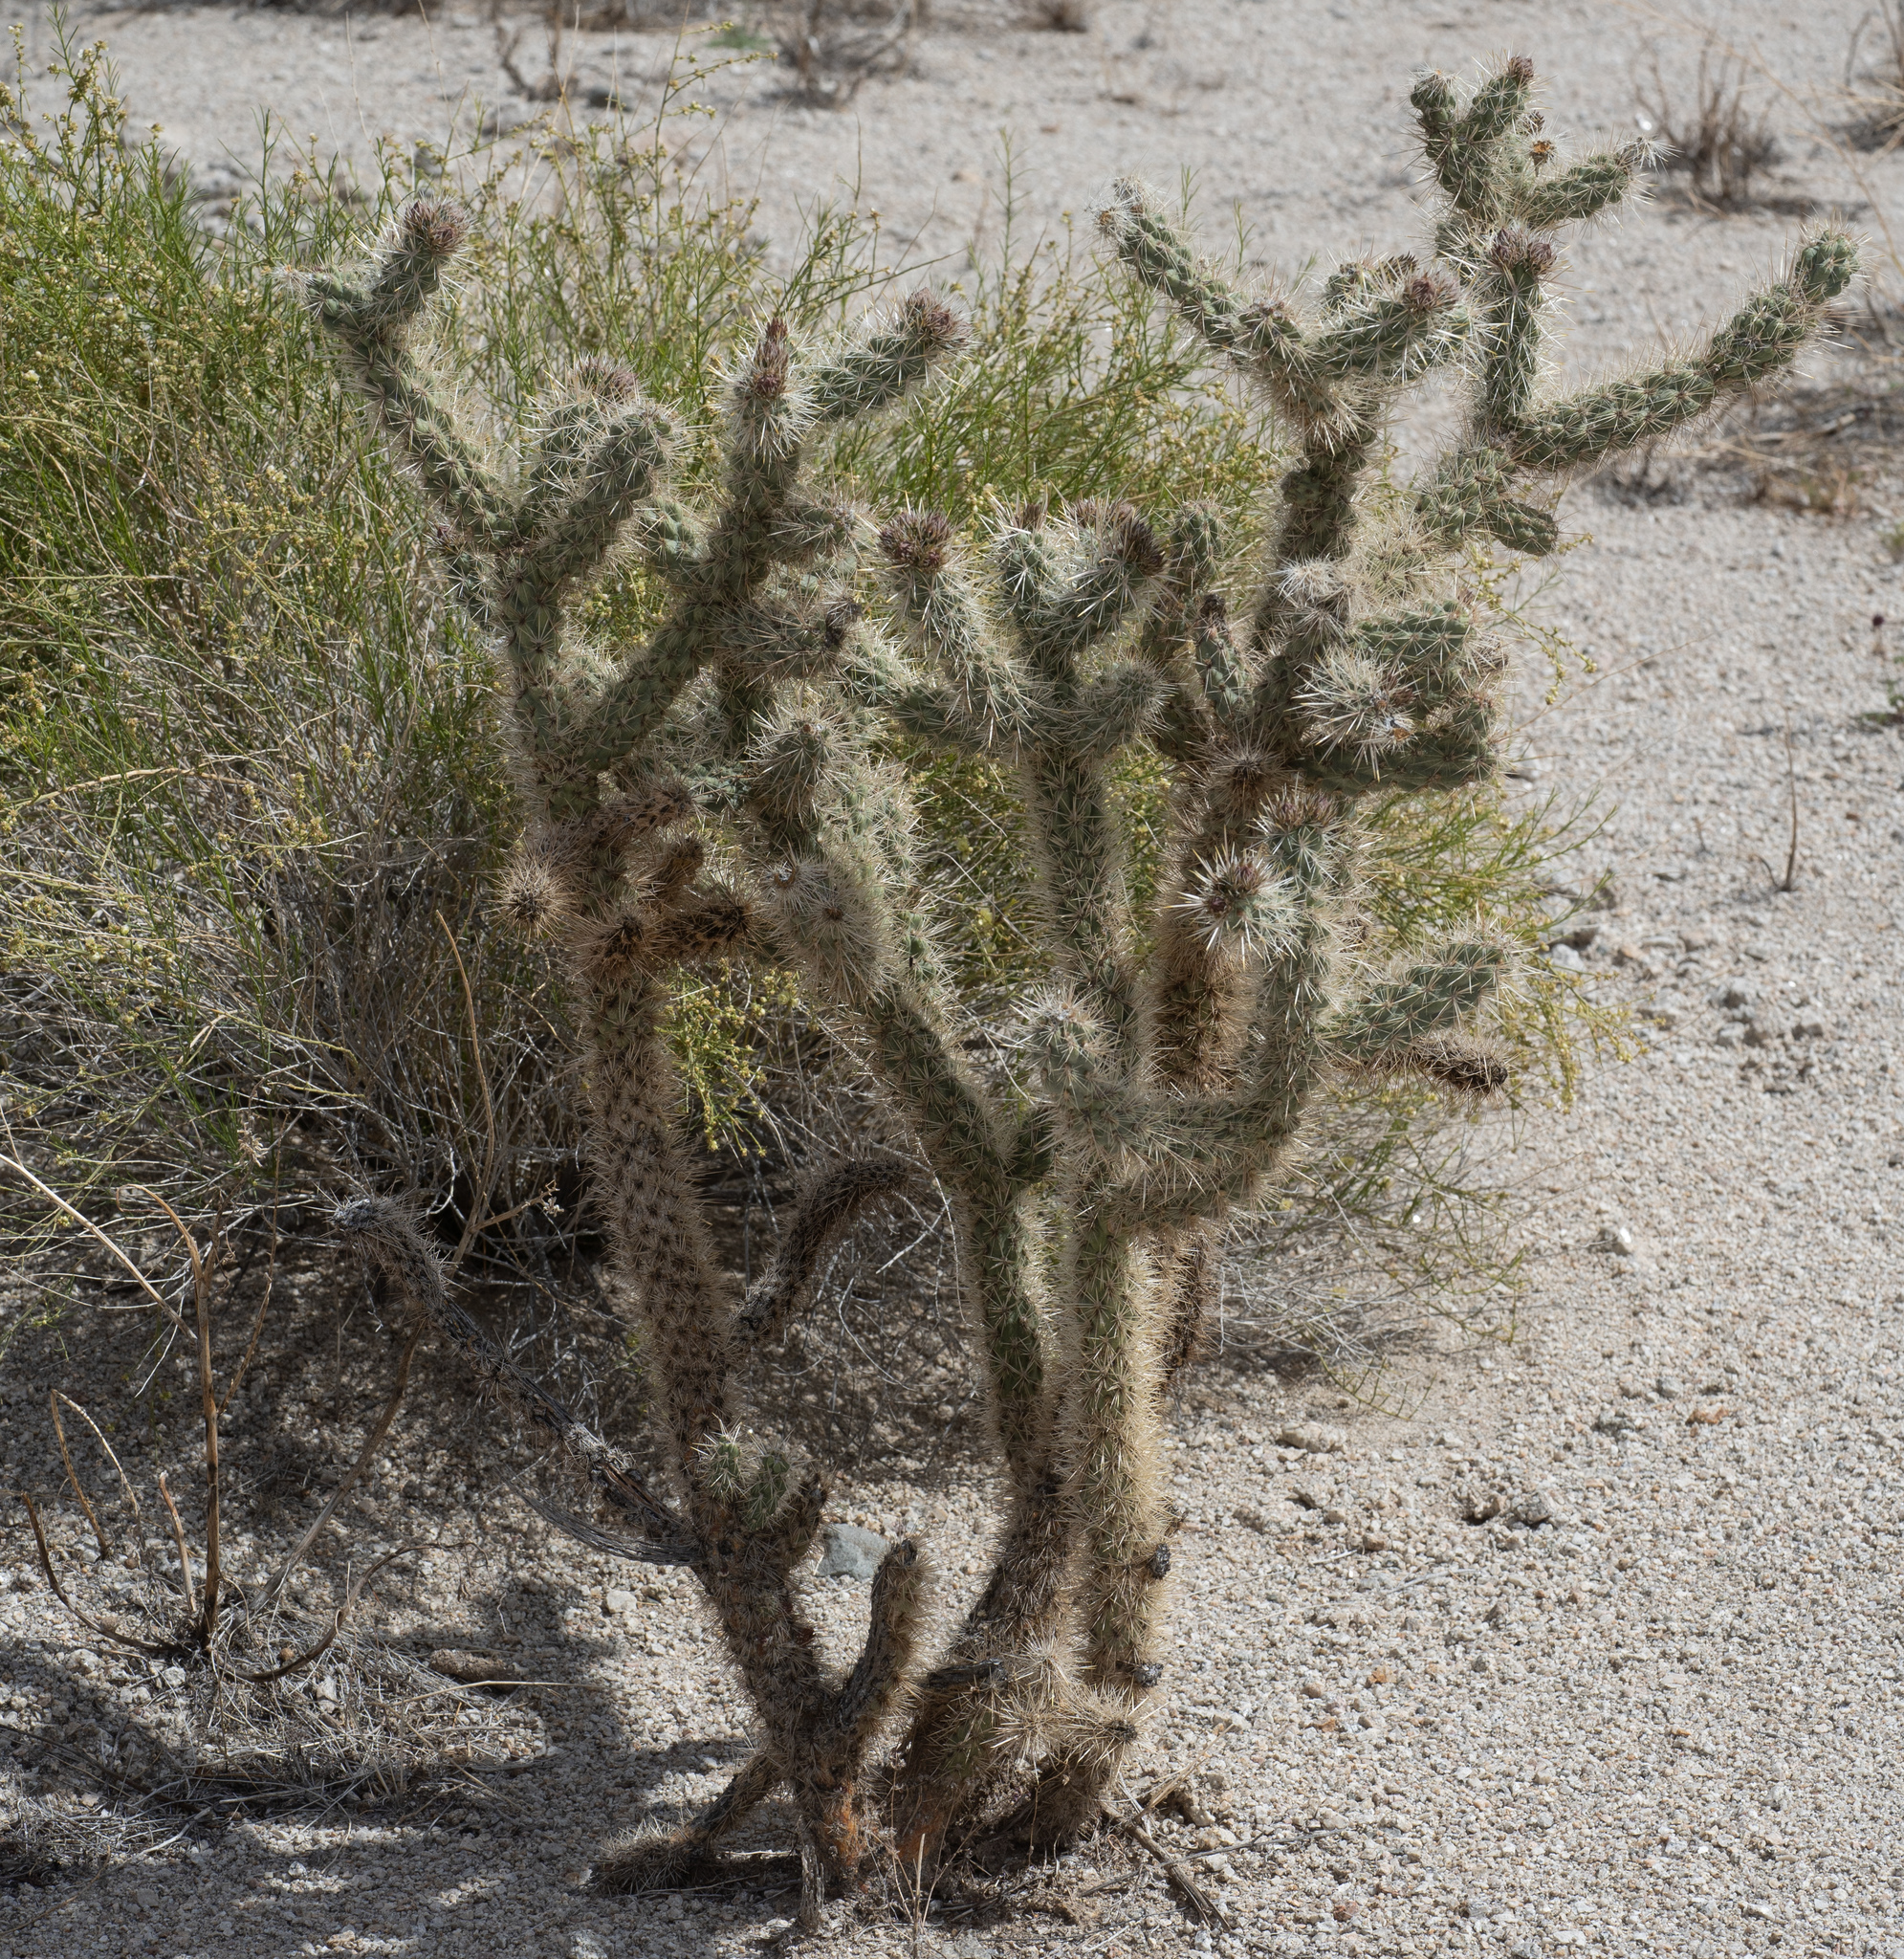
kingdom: Plantae
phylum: Tracheophyta
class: Magnoliopsida
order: Caryophyllales
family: Cactaceae
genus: Cylindropuntia
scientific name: Cylindropuntia echinocarpa
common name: Ground cholla
